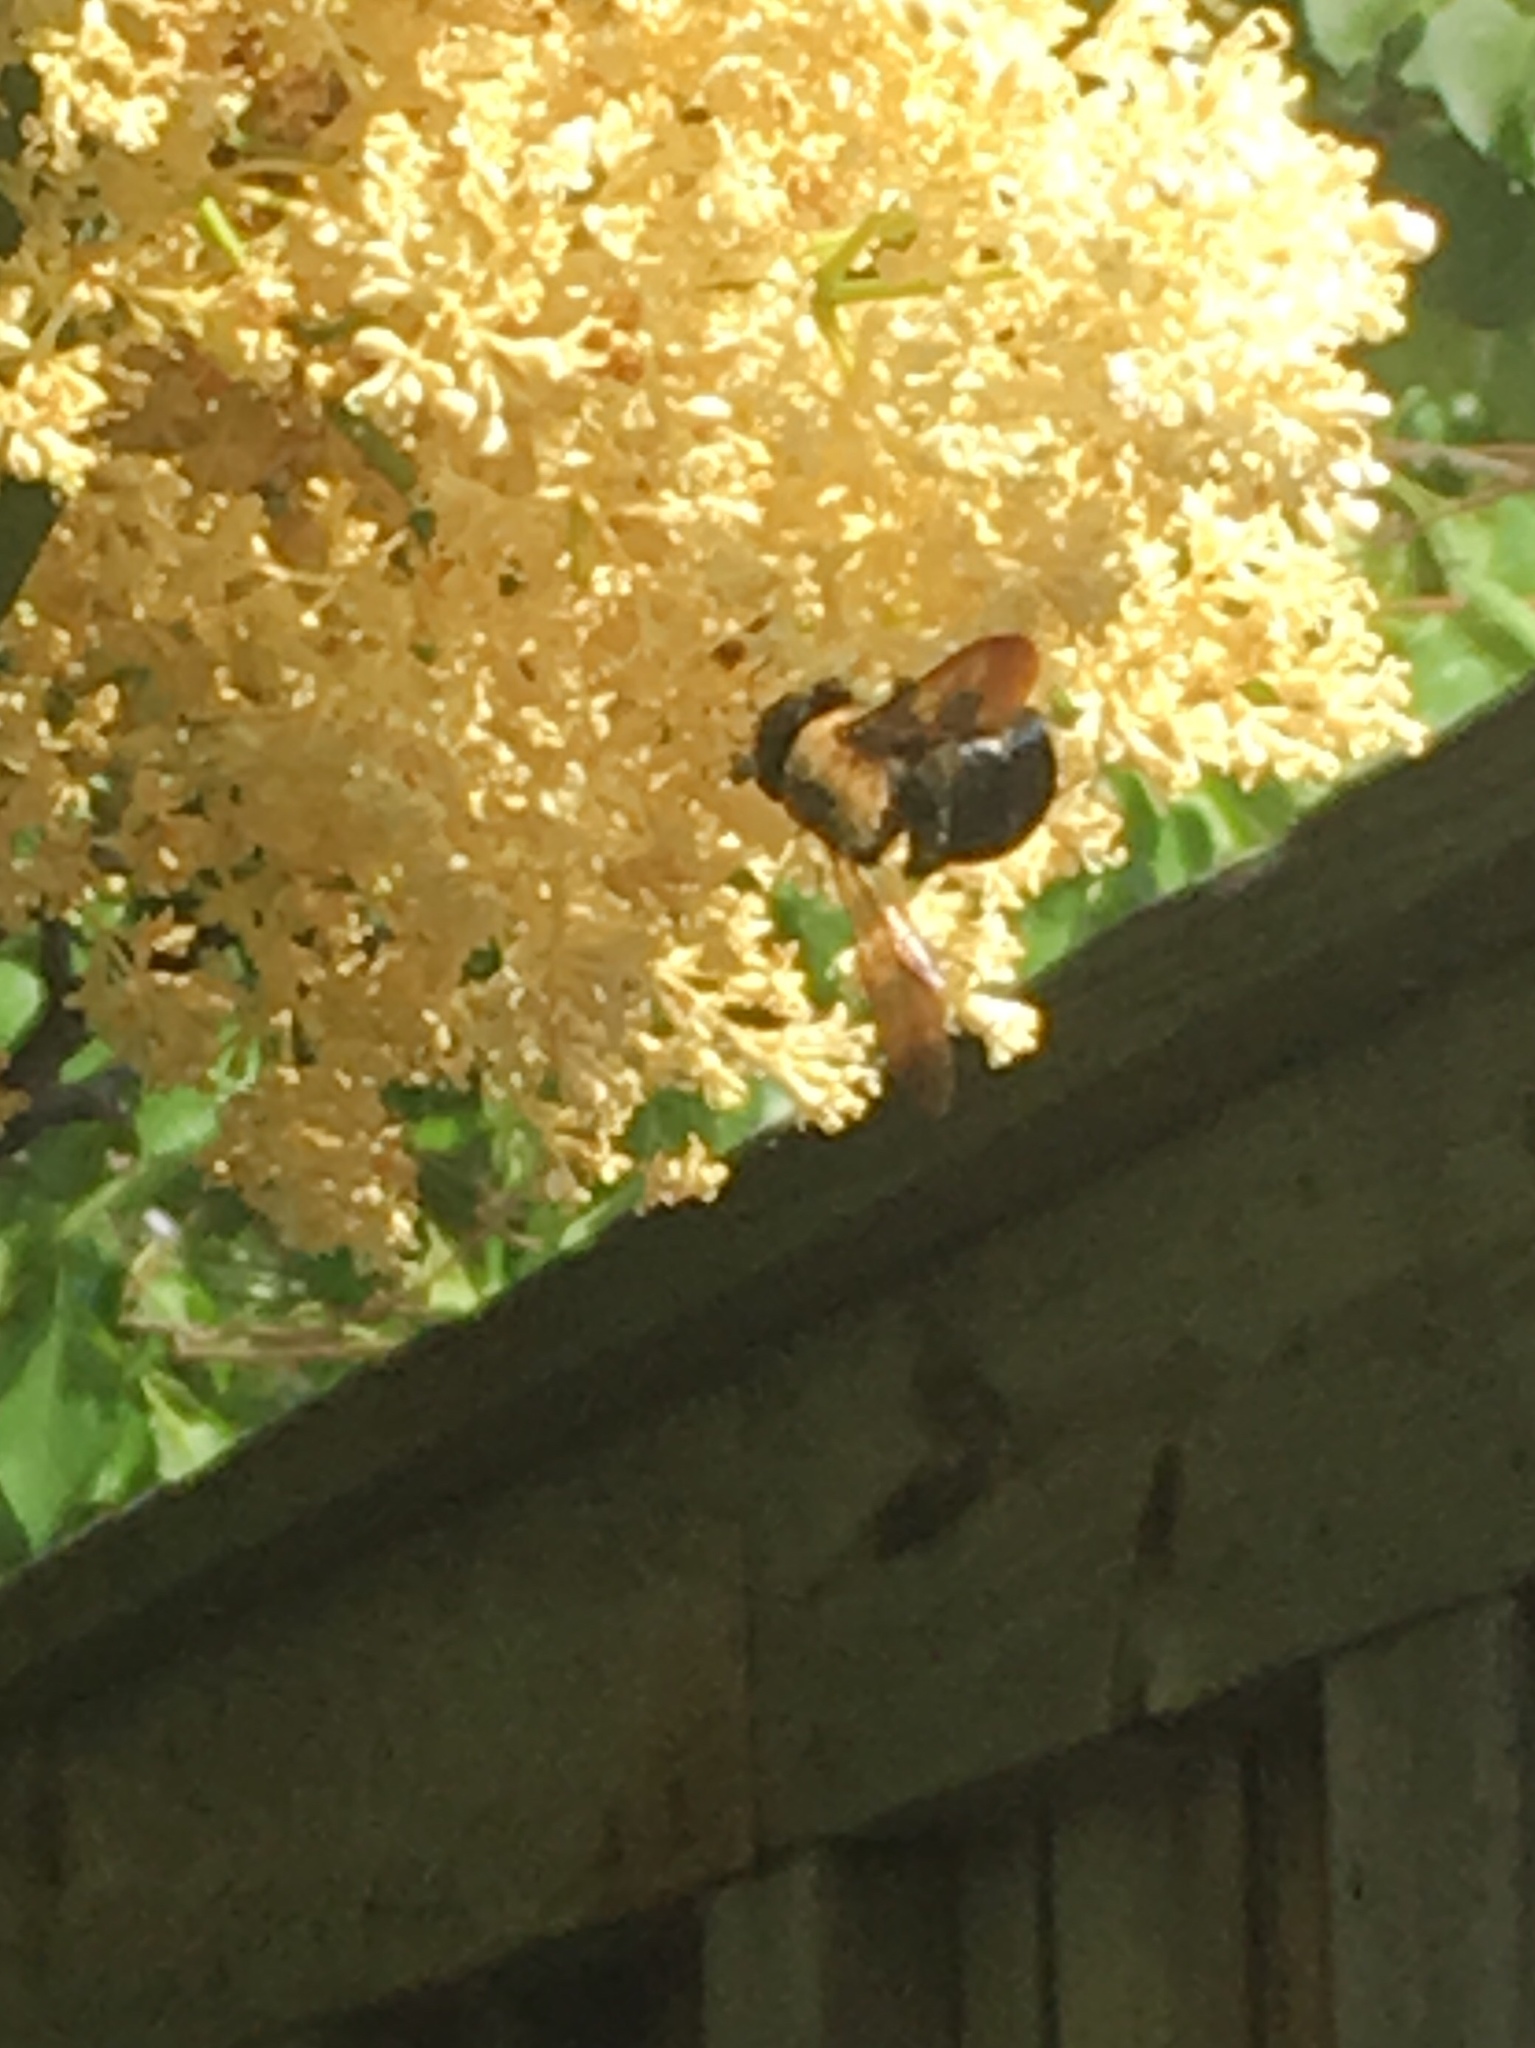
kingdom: Animalia
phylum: Arthropoda
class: Insecta
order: Hymenoptera
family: Apidae
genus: Xylocopa
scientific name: Xylocopa virginica
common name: Carpenter bee
